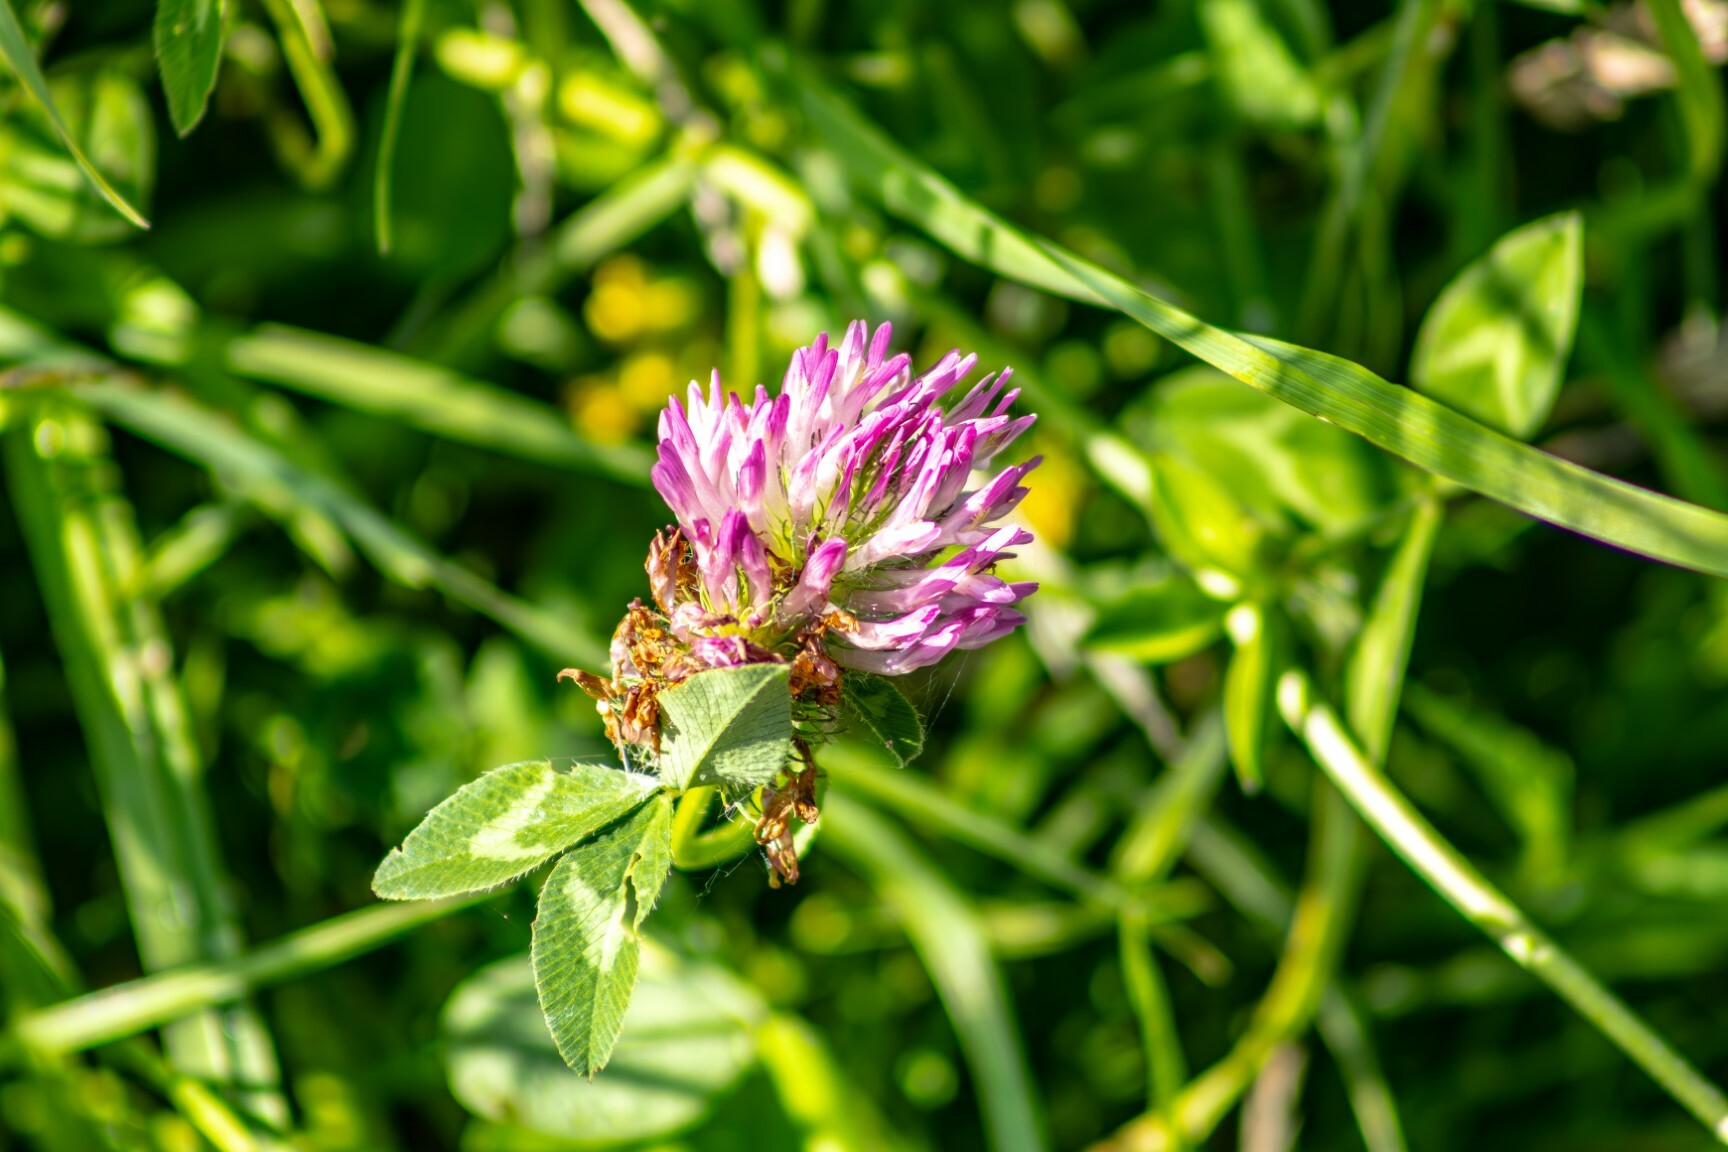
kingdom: Plantae
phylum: Tracheophyta
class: Magnoliopsida
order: Fabales
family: Fabaceae
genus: Trifolium
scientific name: Trifolium pratense
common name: Red clover
